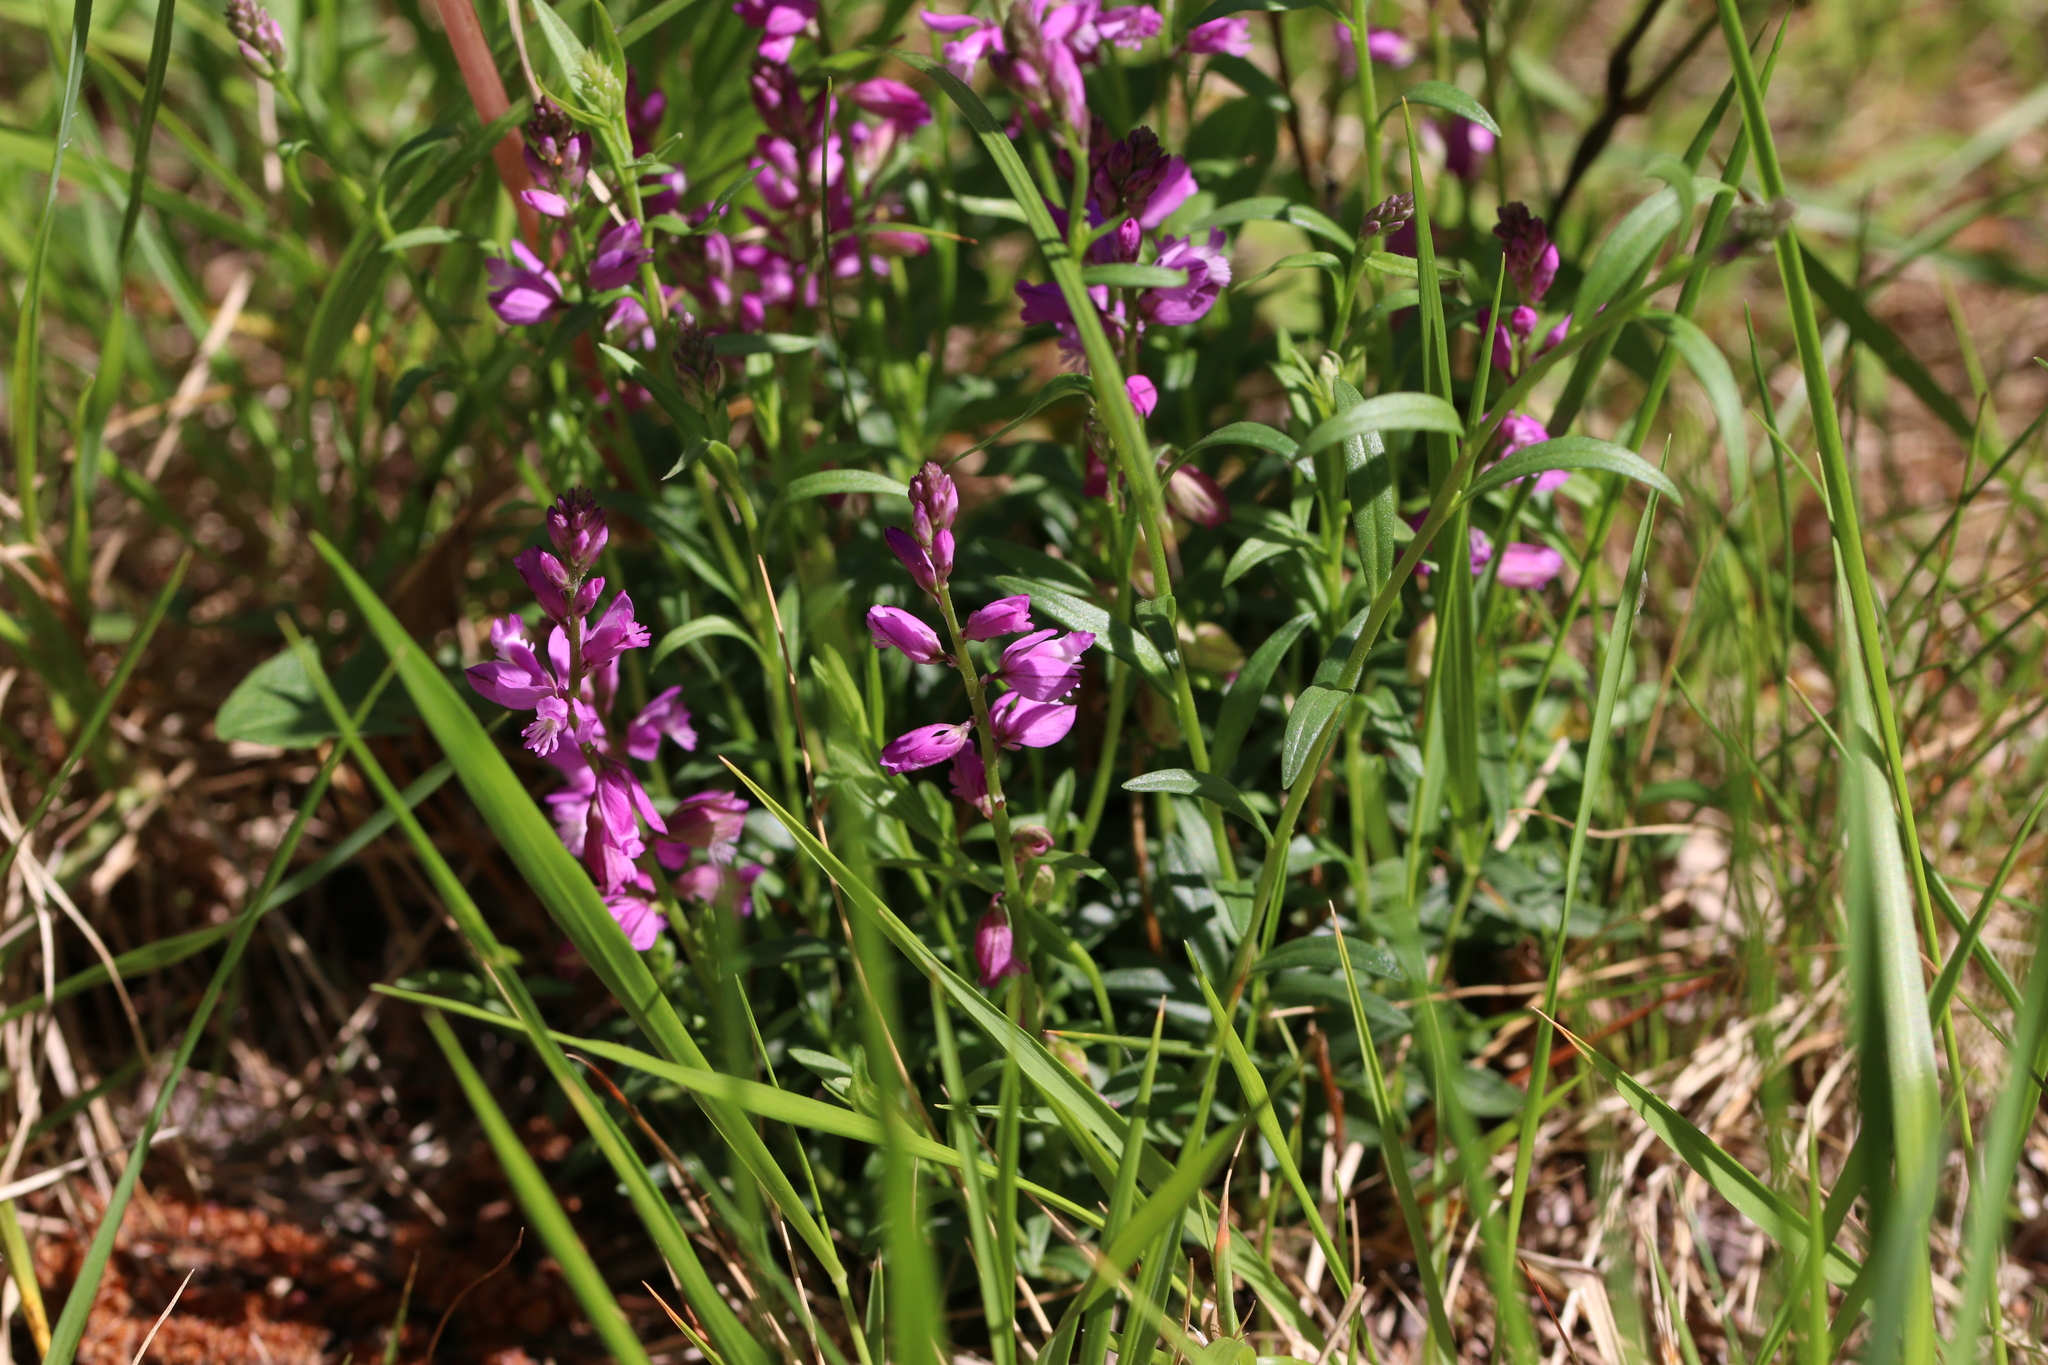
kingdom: Plantae
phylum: Tracheophyta
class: Magnoliopsida
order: Fabales
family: Polygalaceae
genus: Polygala
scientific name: Polygala nicaeensis
